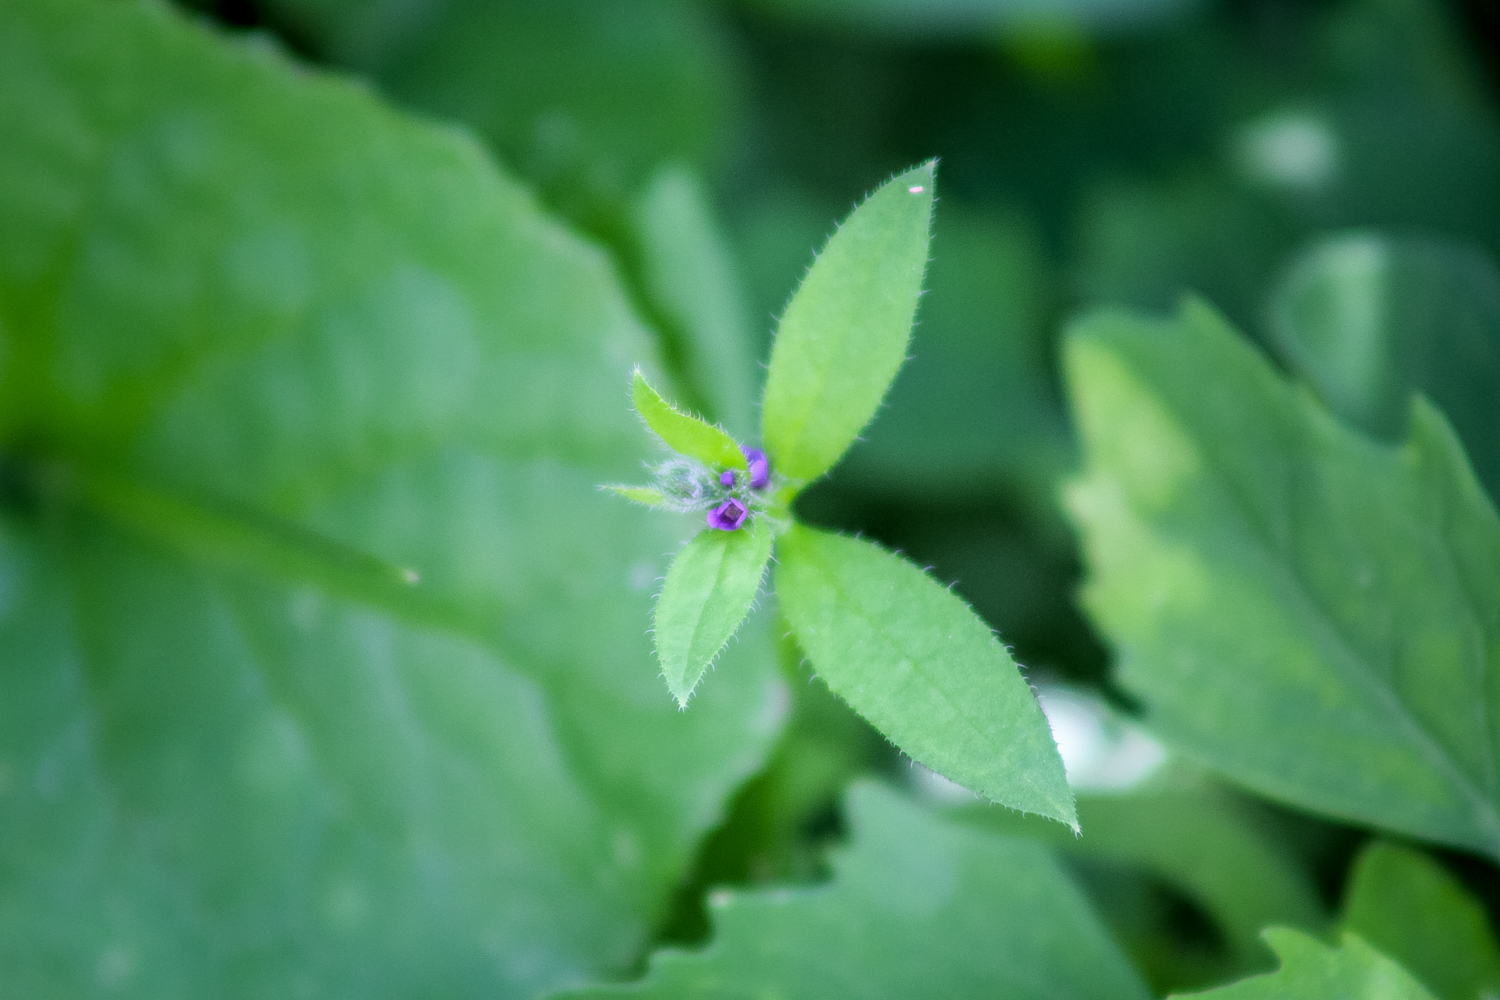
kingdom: Plantae
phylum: Tracheophyta
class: Magnoliopsida
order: Boraginales
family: Boraginaceae
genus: Asperugo
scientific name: Asperugo procumbens
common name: Madwort
